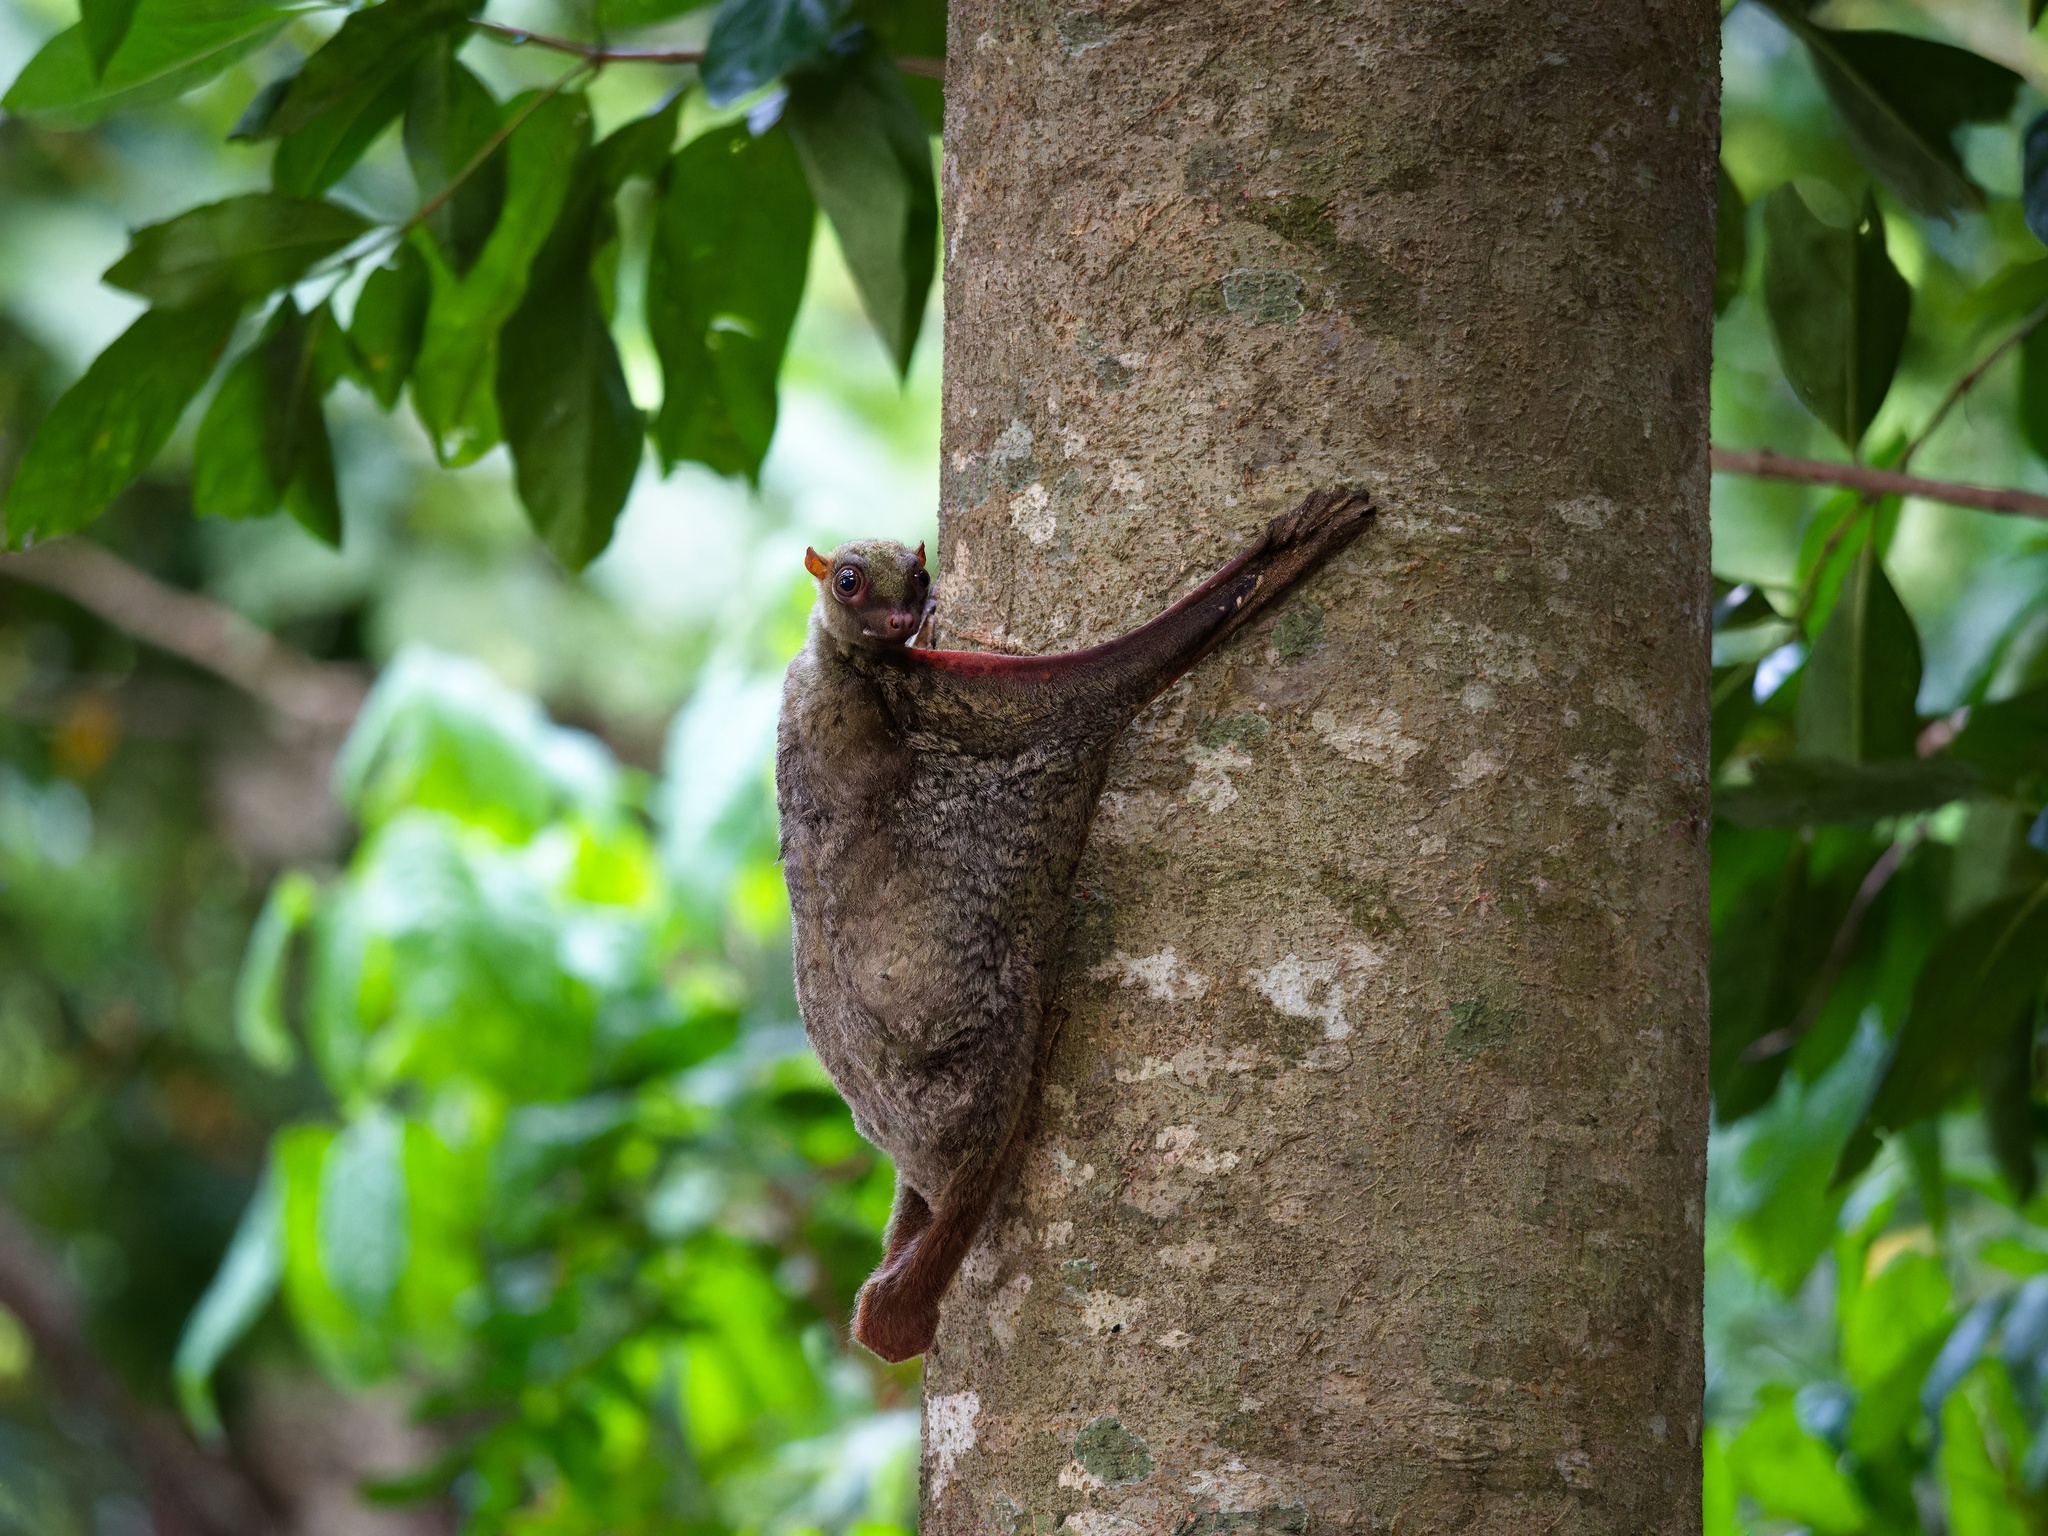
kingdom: Animalia
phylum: Chordata
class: Mammalia
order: Dermoptera
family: Cynocephalidae
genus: Galeopterus
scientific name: Galeopterus variegatus
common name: Sunda flying lemur
